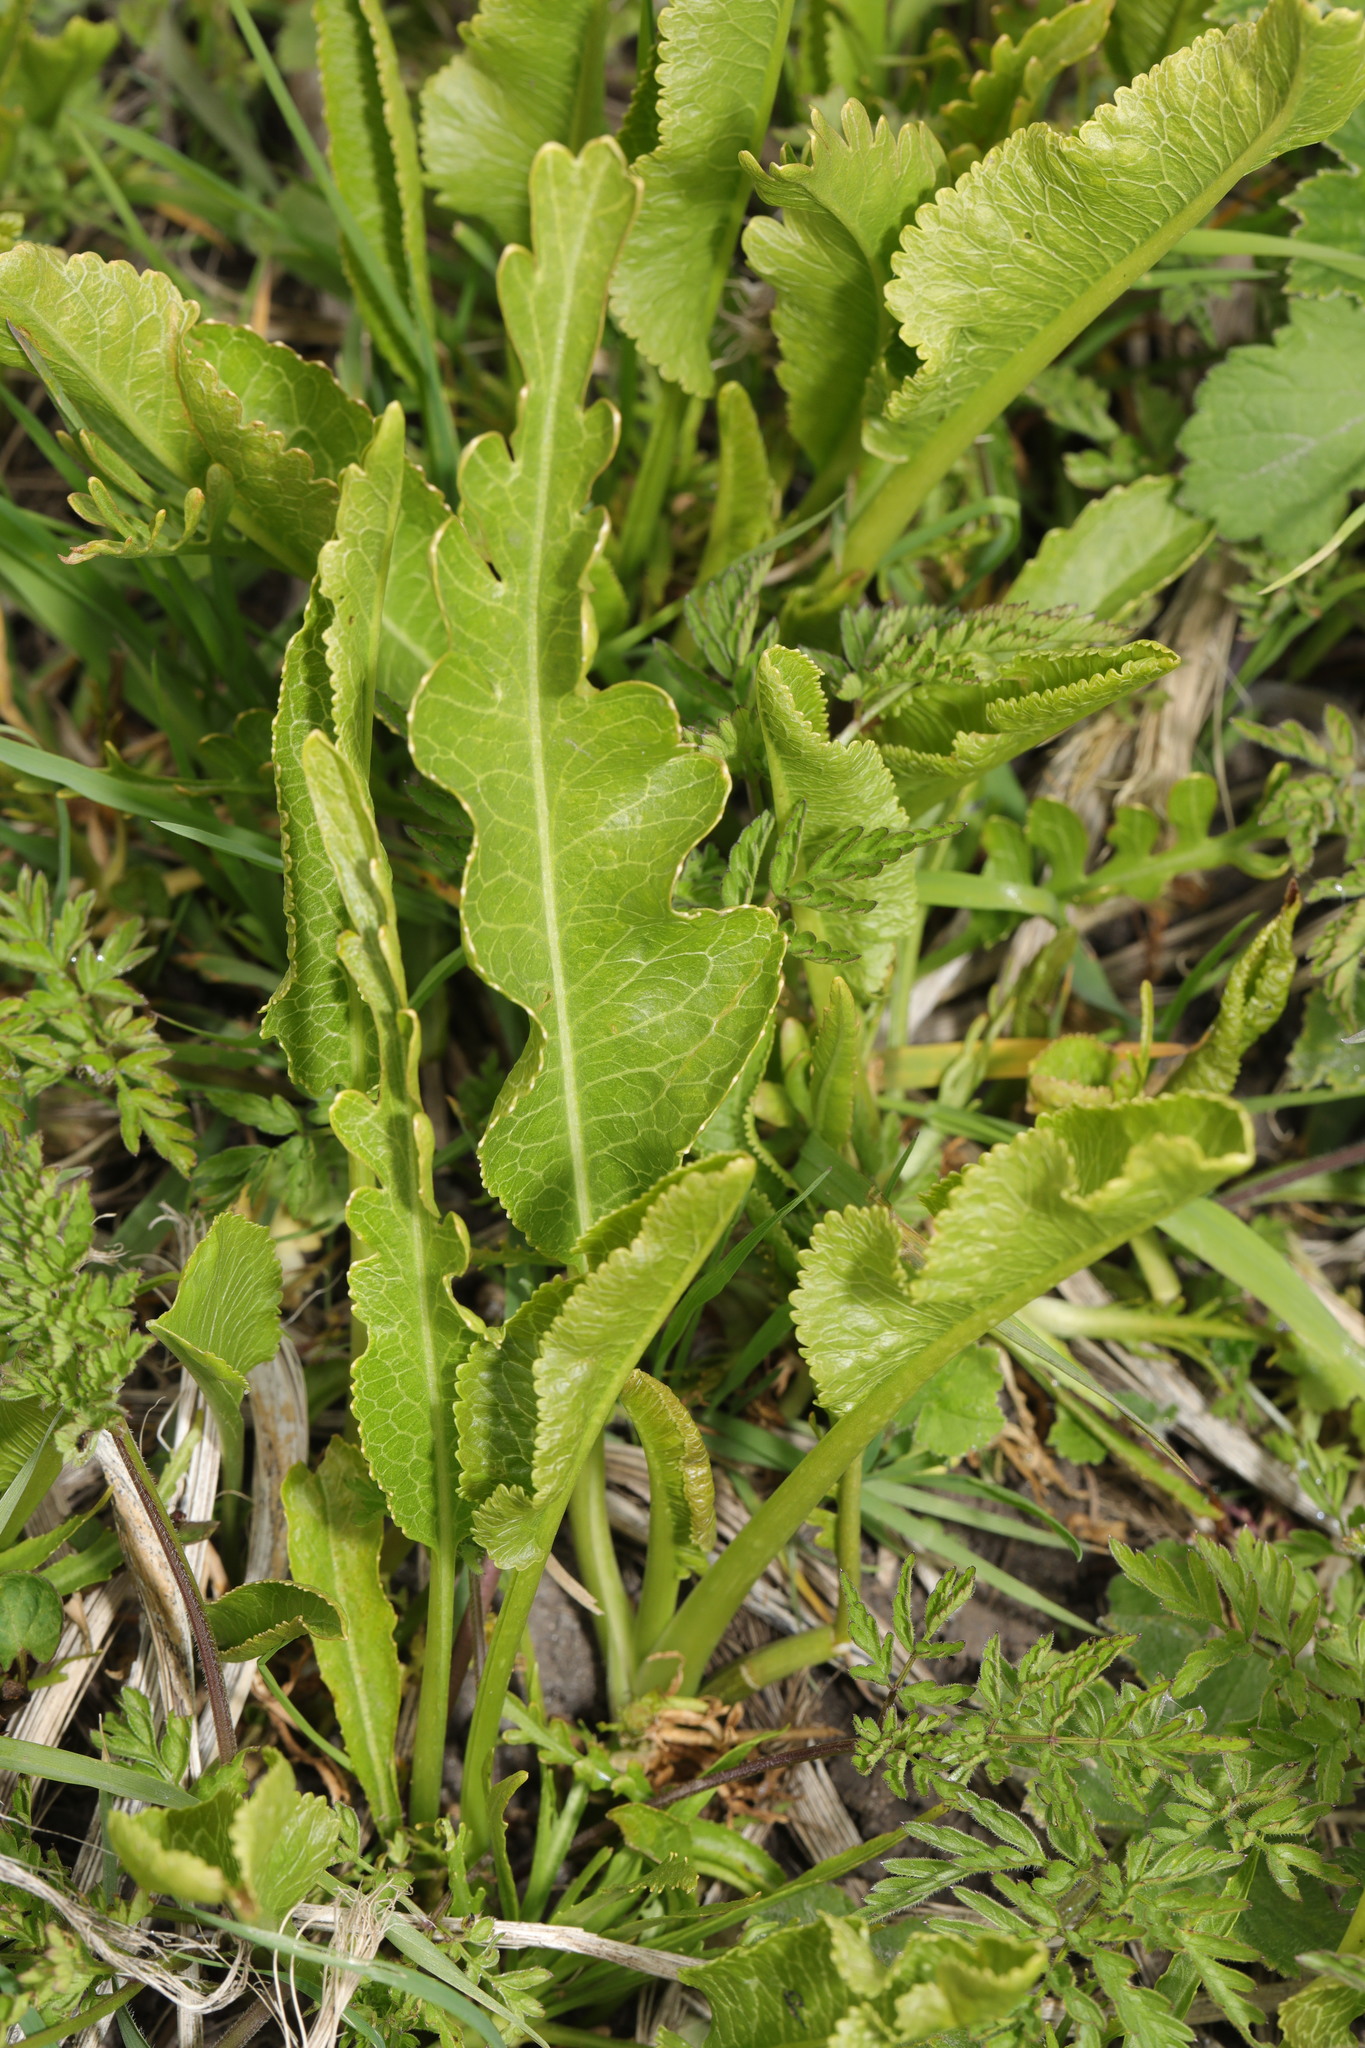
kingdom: Plantae
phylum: Tracheophyta
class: Magnoliopsida
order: Brassicales
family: Brassicaceae
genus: Armoracia
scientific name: Armoracia rusticana
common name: Horseradish
